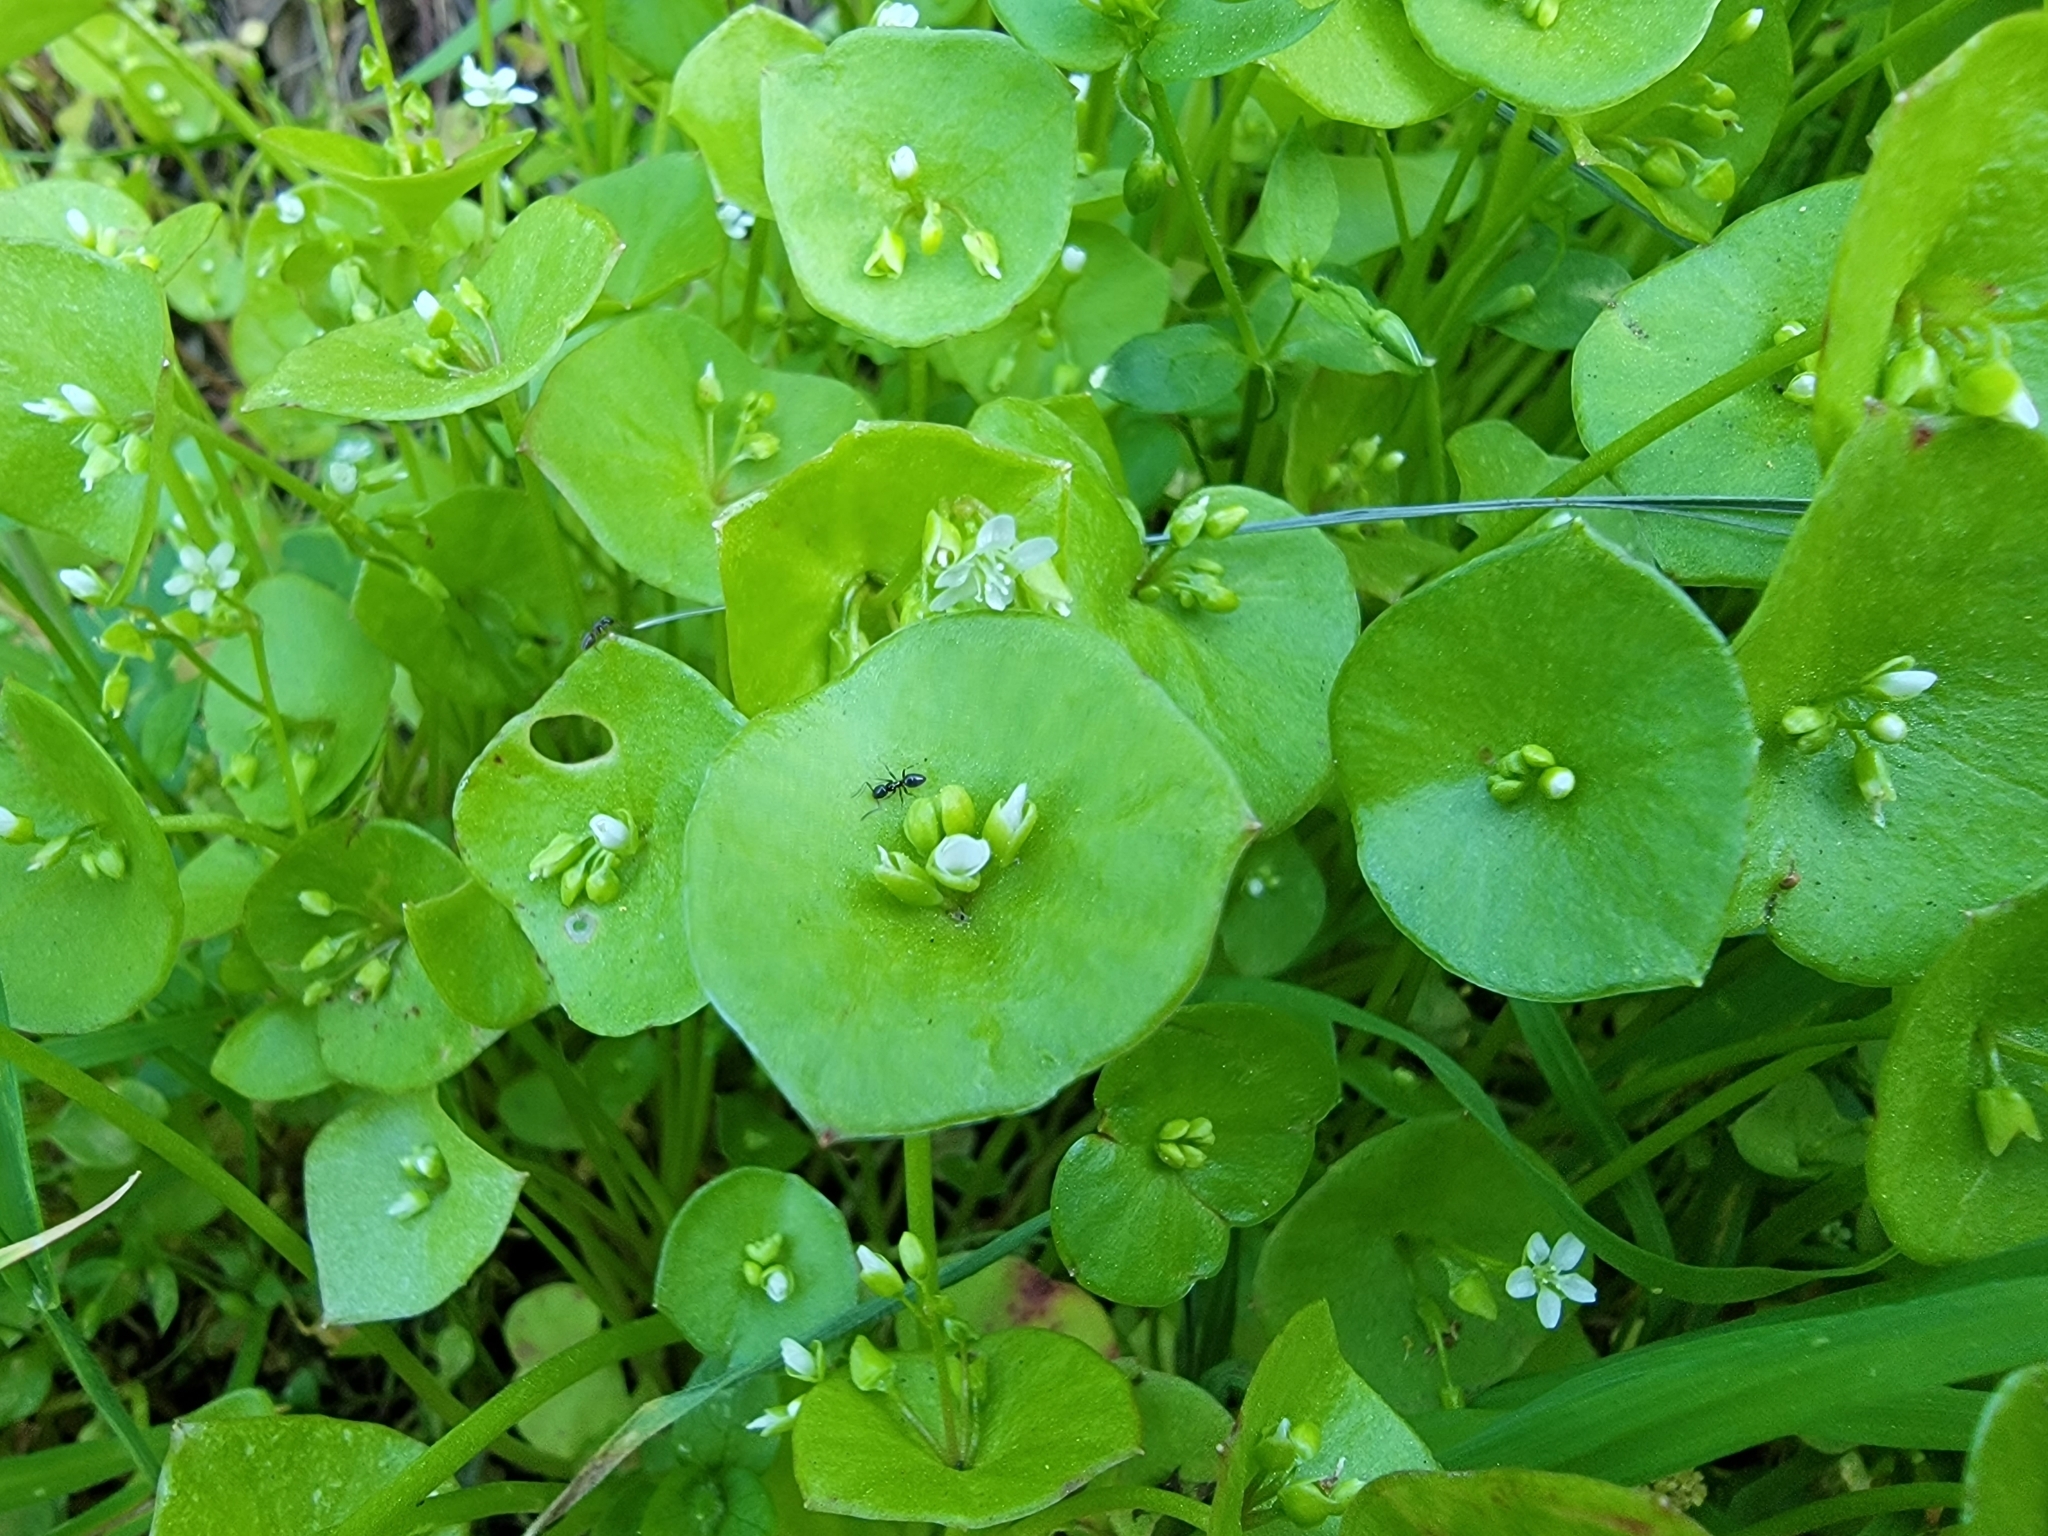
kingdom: Plantae
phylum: Tracheophyta
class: Magnoliopsida
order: Caryophyllales
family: Montiaceae
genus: Claytonia
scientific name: Claytonia perfoliata
